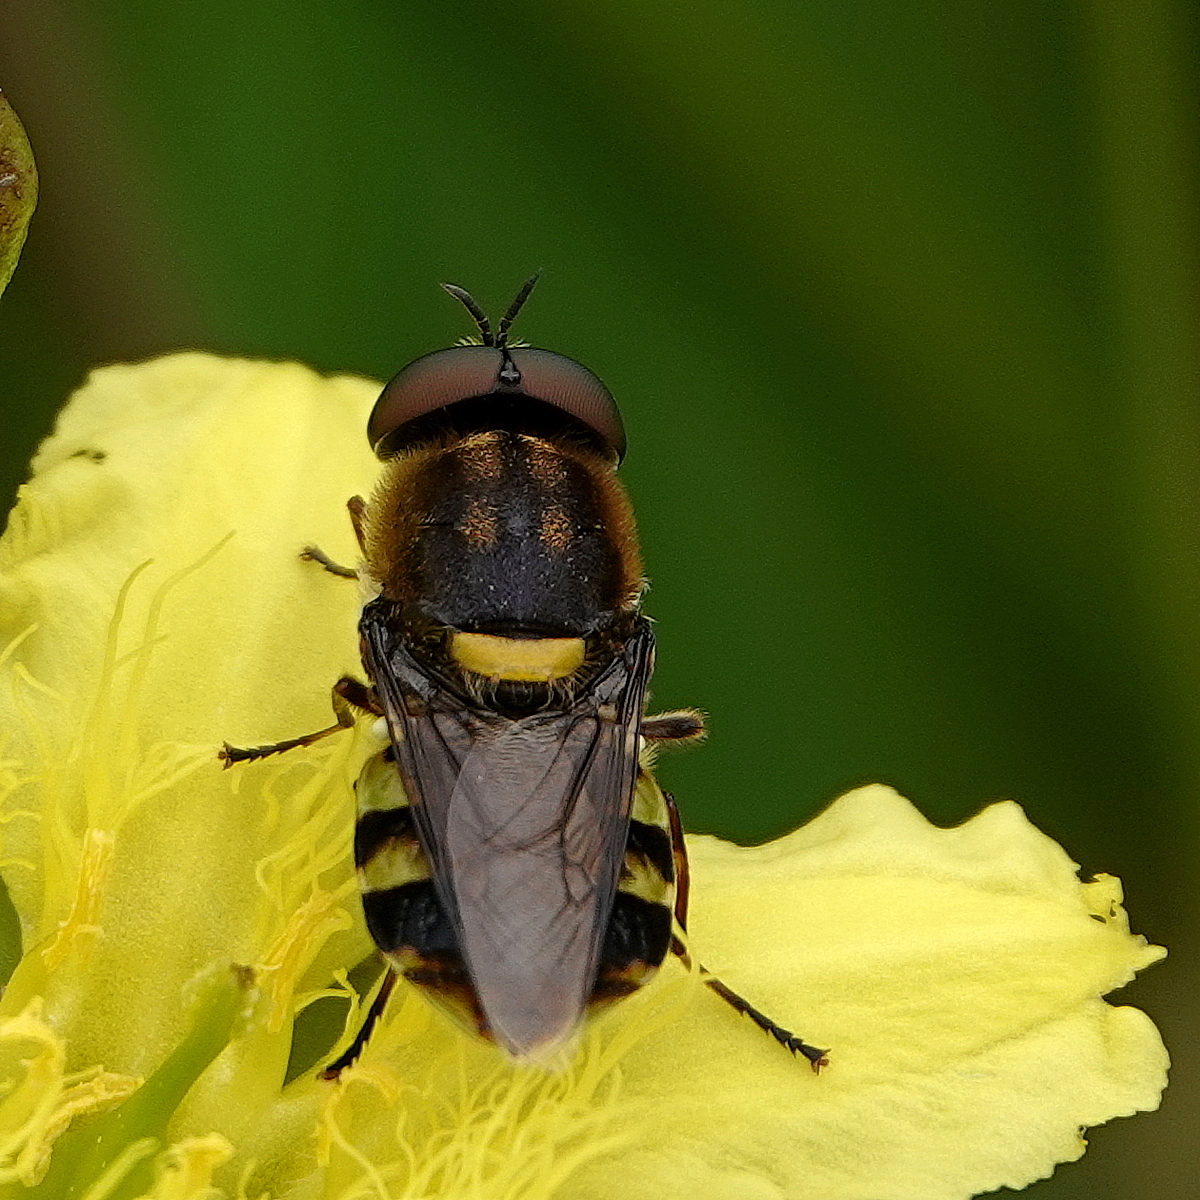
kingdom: Animalia
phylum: Arthropoda
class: Insecta
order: Diptera
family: Stratiomyidae
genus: Odontomyia
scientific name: Odontomyia hunteri
